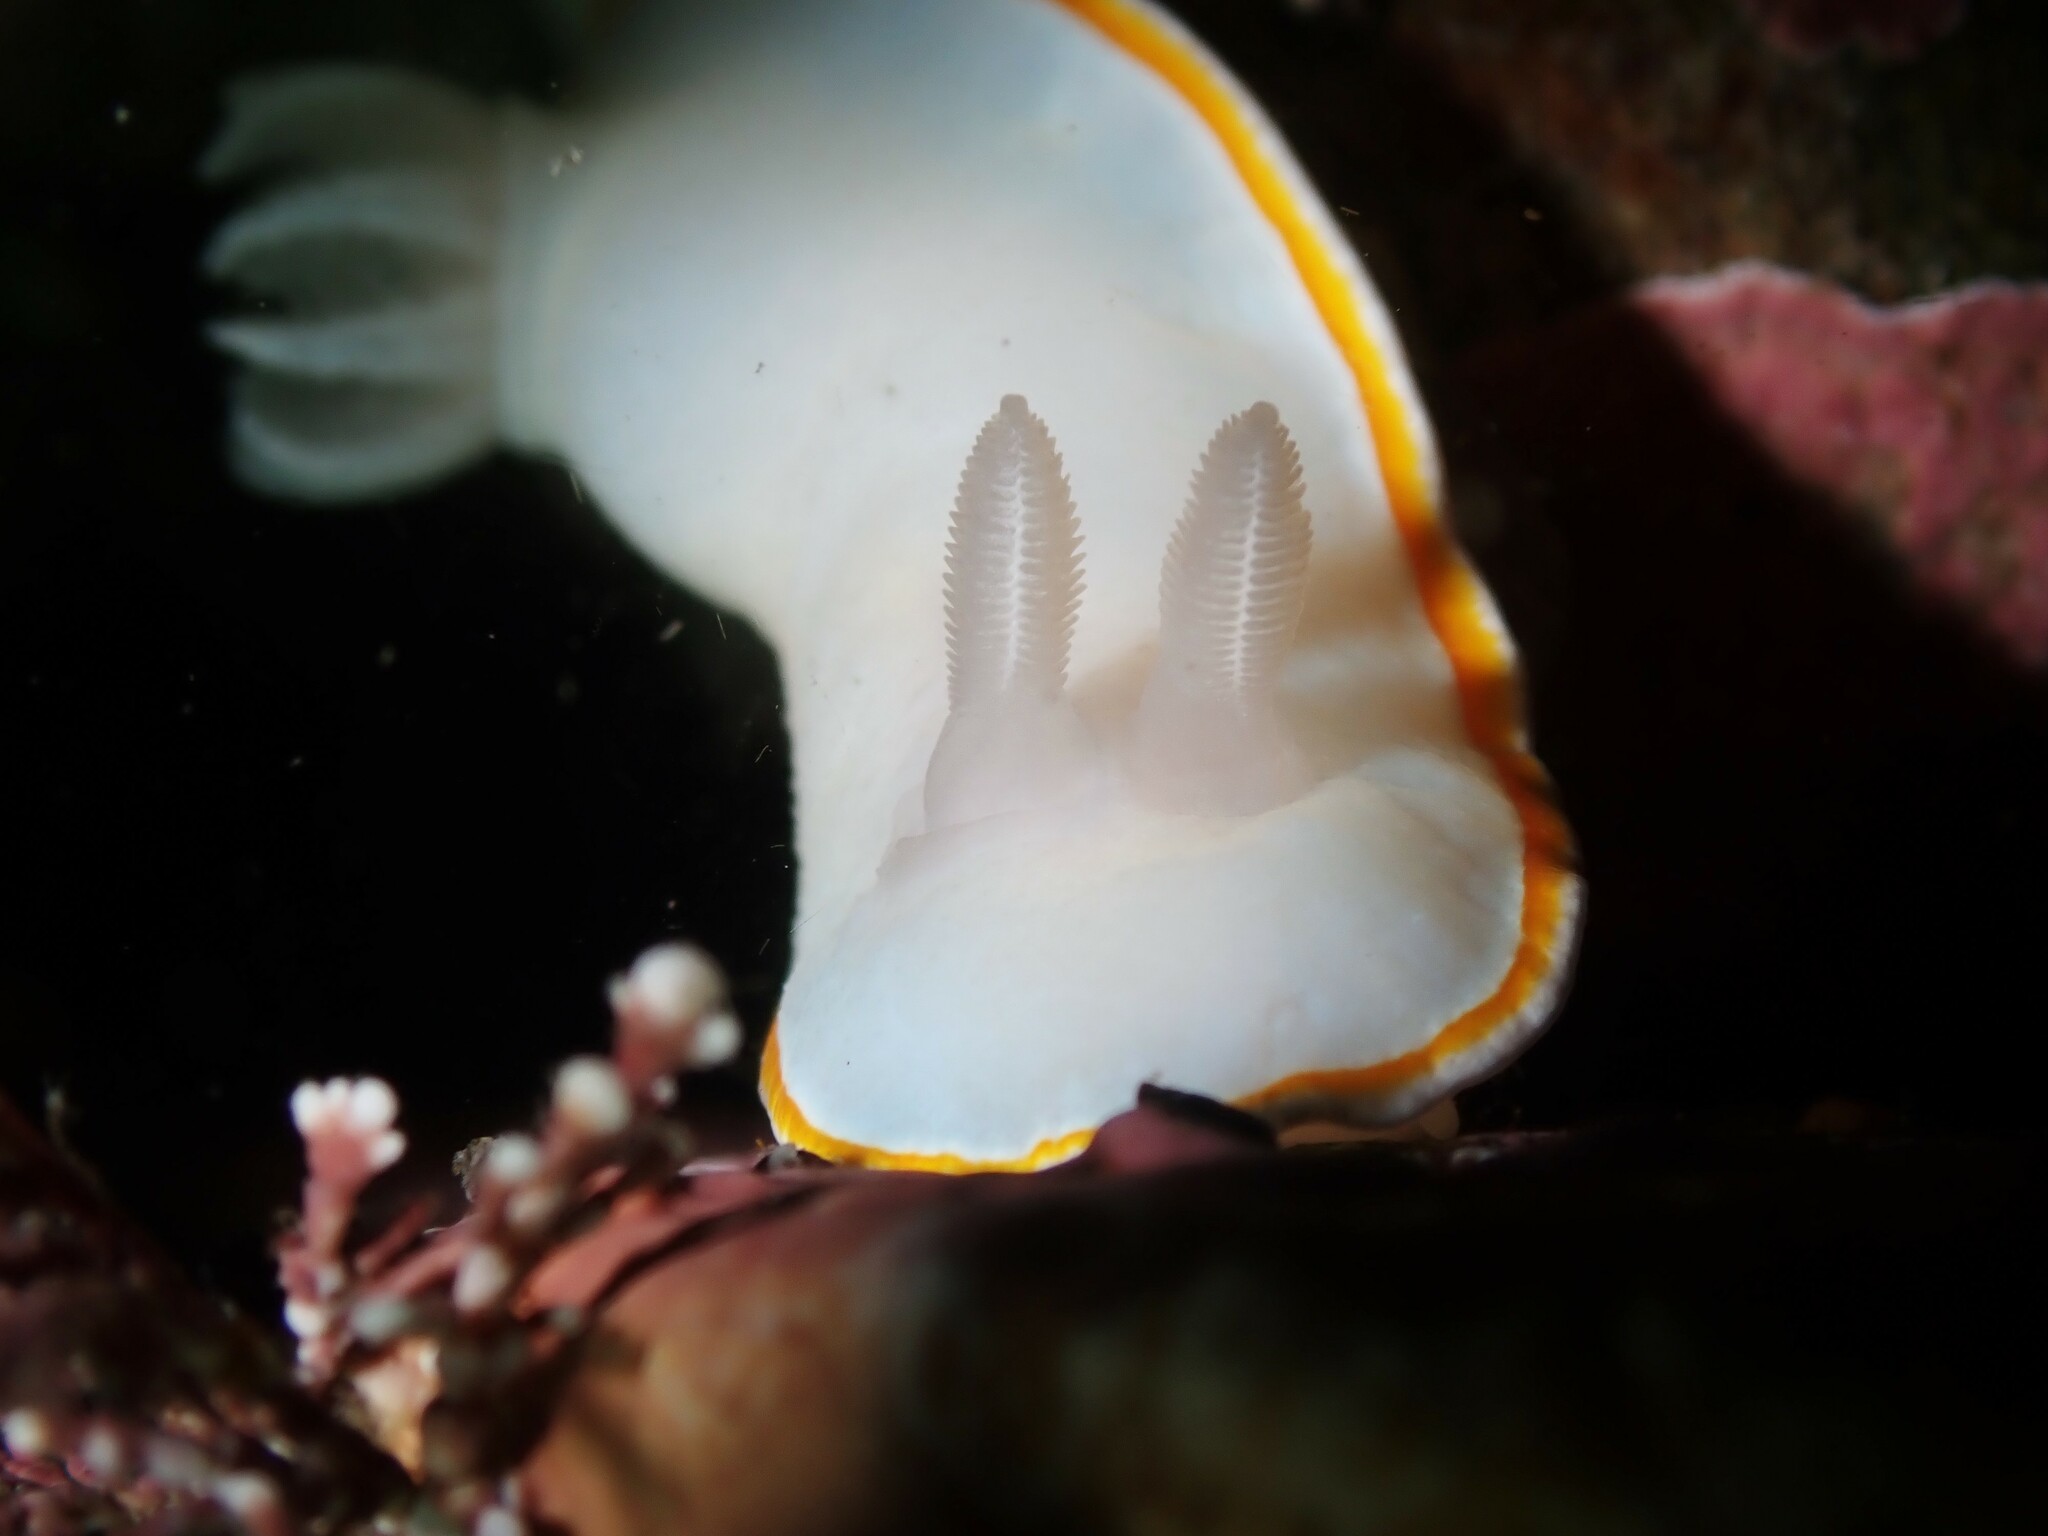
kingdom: Animalia
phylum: Mollusca
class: Gastropoda
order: Nudibranchia
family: Chromodorididae
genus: Goniobranchus
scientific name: Goniobranchus aureomarginatus
